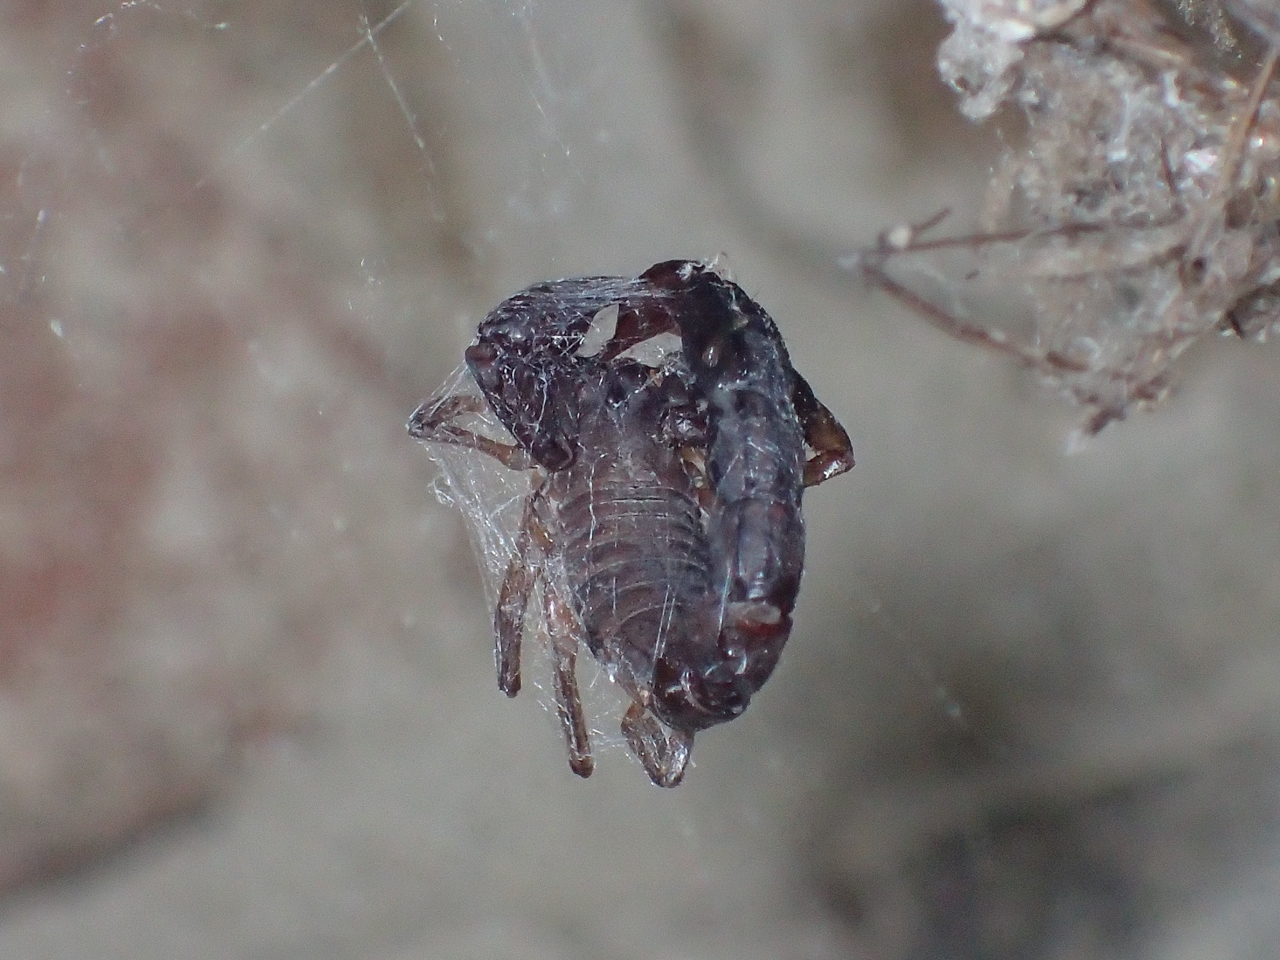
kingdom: Animalia
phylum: Arthropoda
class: Arachnida
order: Scorpiones
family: Vaejovidae
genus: Vaejovis
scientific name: Vaejovis carolinianus
